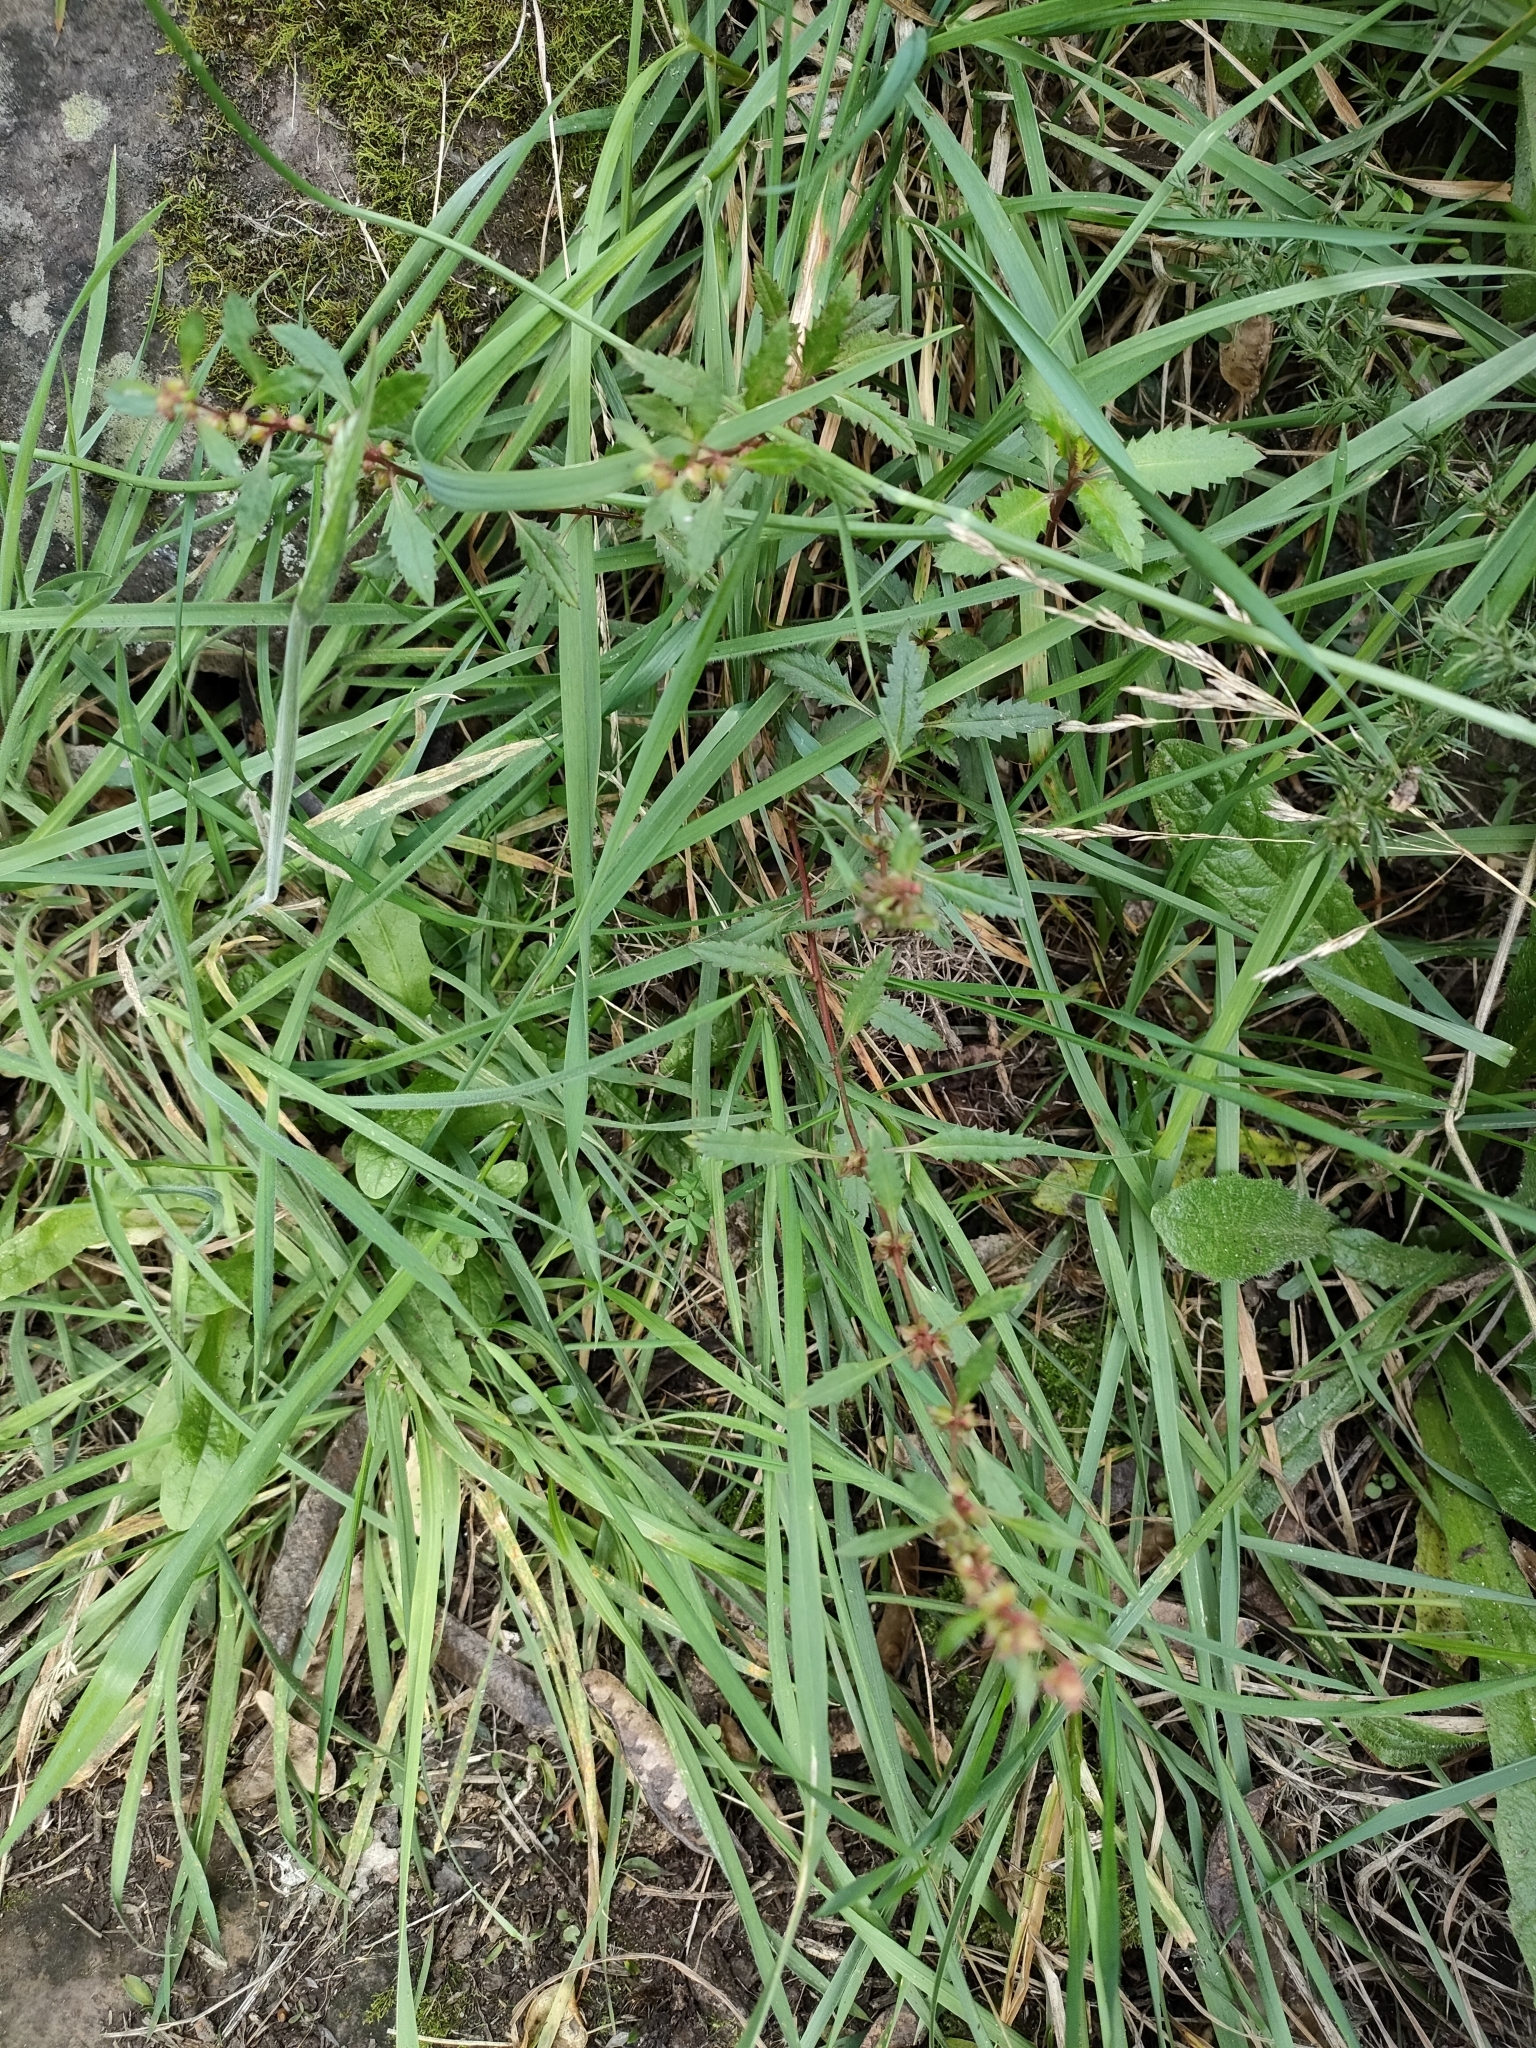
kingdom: Plantae
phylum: Tracheophyta
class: Magnoliopsida
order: Saxifragales
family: Haloragaceae
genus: Haloragis
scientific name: Haloragis erecta
